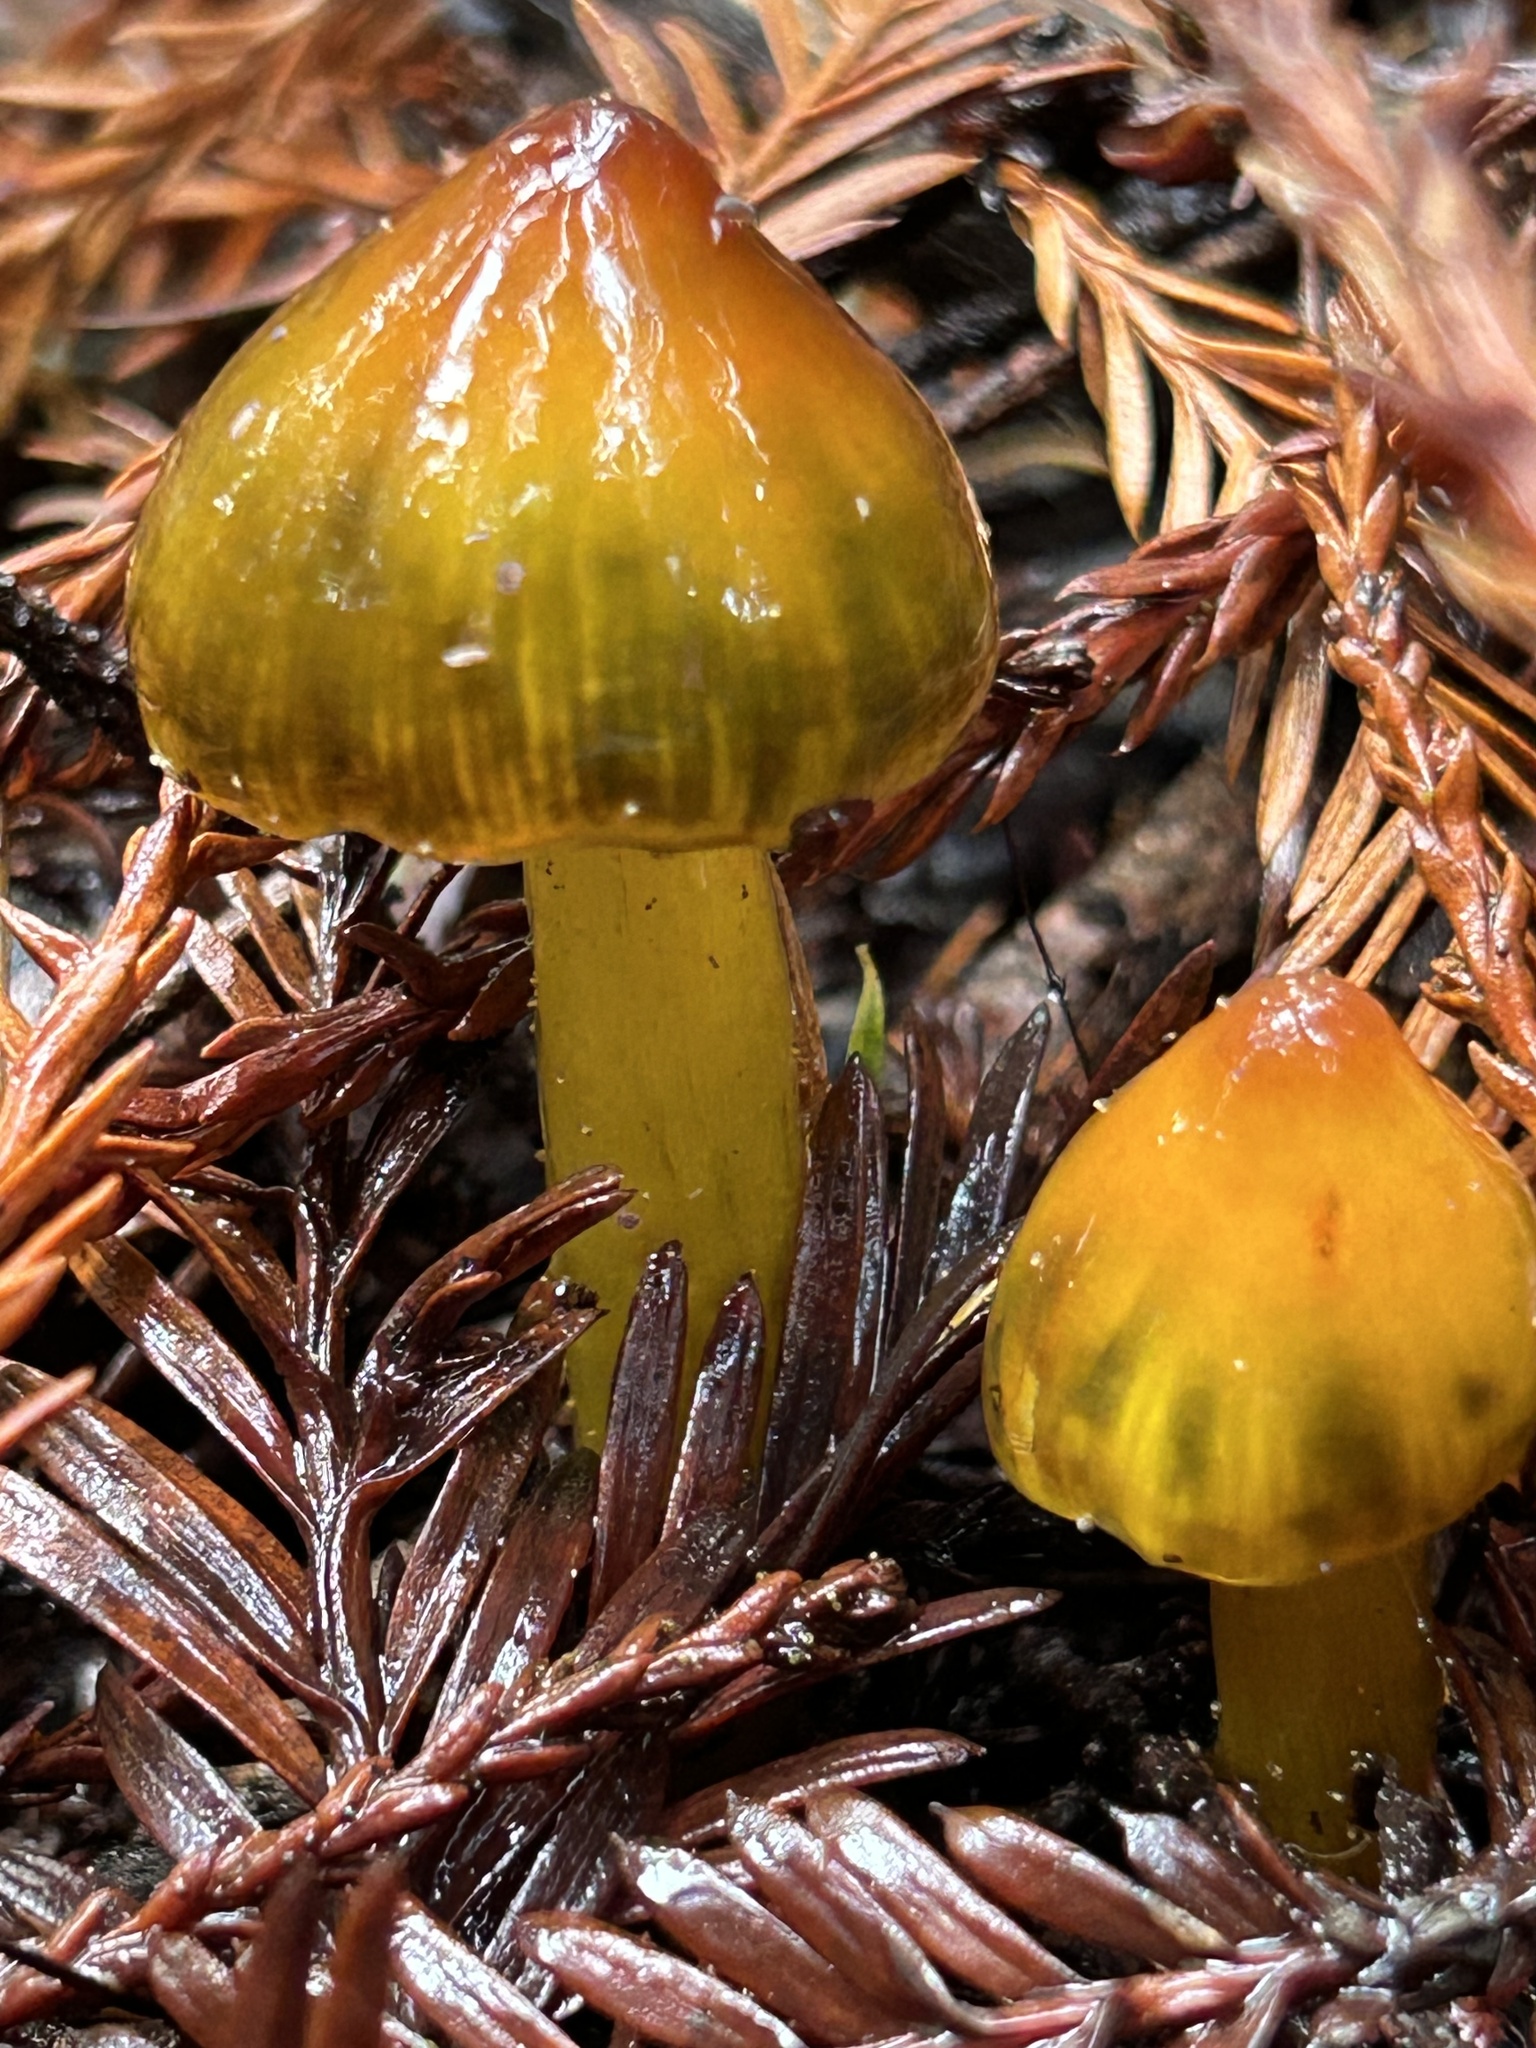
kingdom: Fungi
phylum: Basidiomycota
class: Agaricomycetes
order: Agaricales
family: Hygrophoraceae
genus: Hygrocybe
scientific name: Hygrocybe singeri
